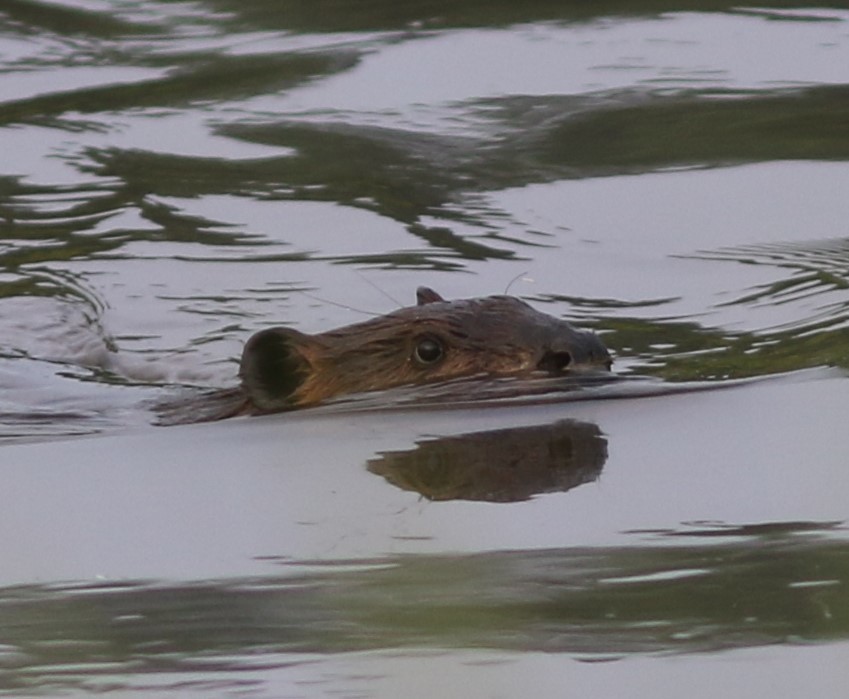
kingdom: Animalia
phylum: Chordata
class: Mammalia
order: Rodentia
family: Castoridae
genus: Castor
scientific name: Castor canadensis
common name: American beaver
